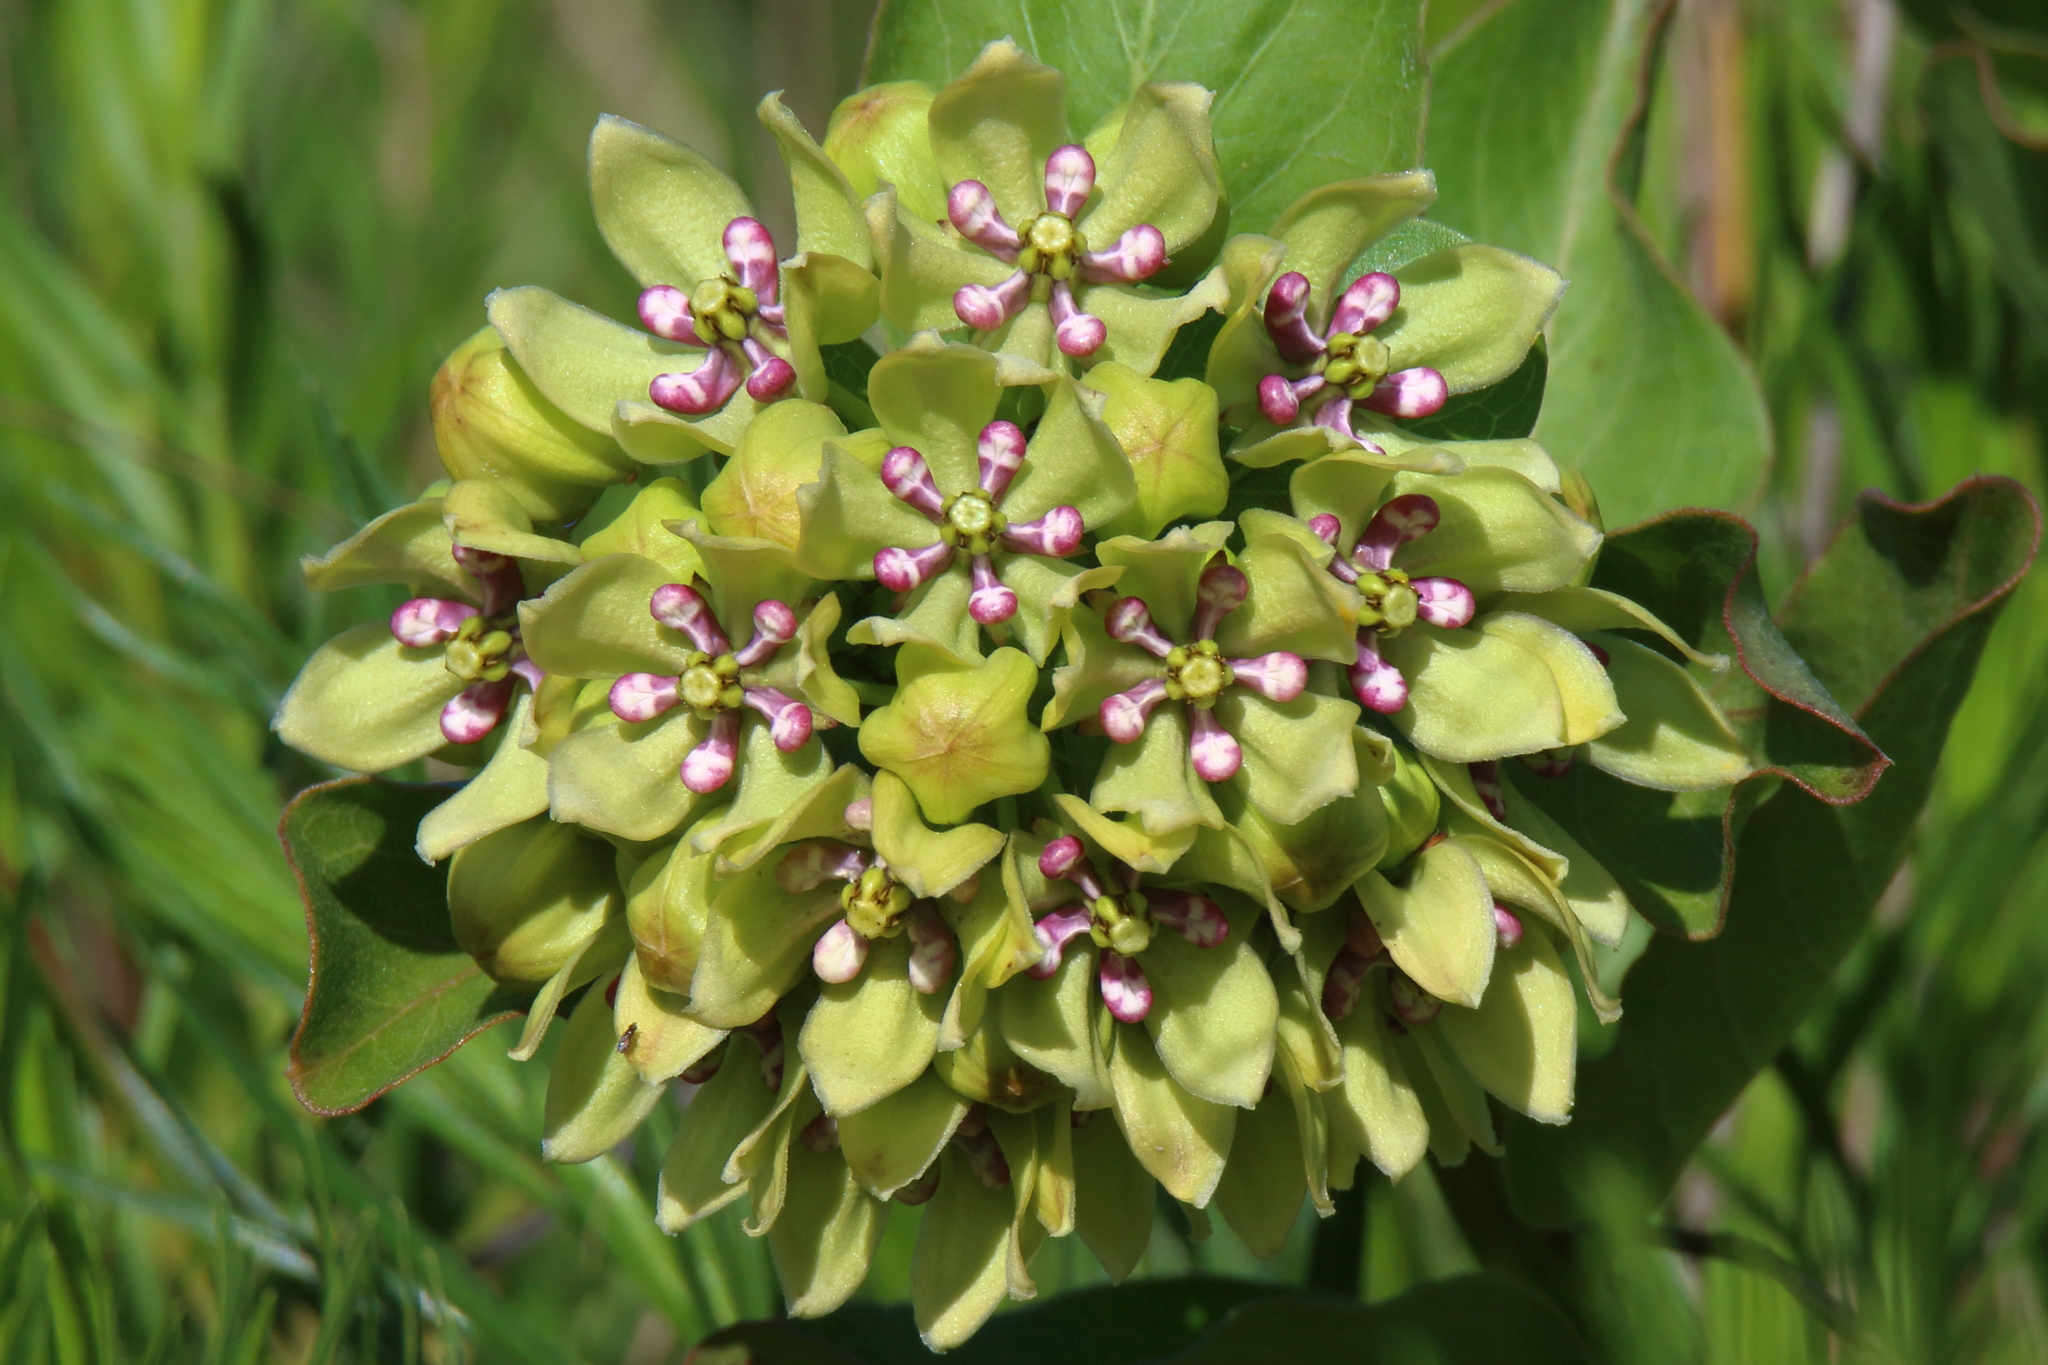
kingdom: Plantae
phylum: Tracheophyta
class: Magnoliopsida
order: Gentianales
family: Apocynaceae
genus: Asclepias
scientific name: Asclepias viridis
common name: Antelope-horns
